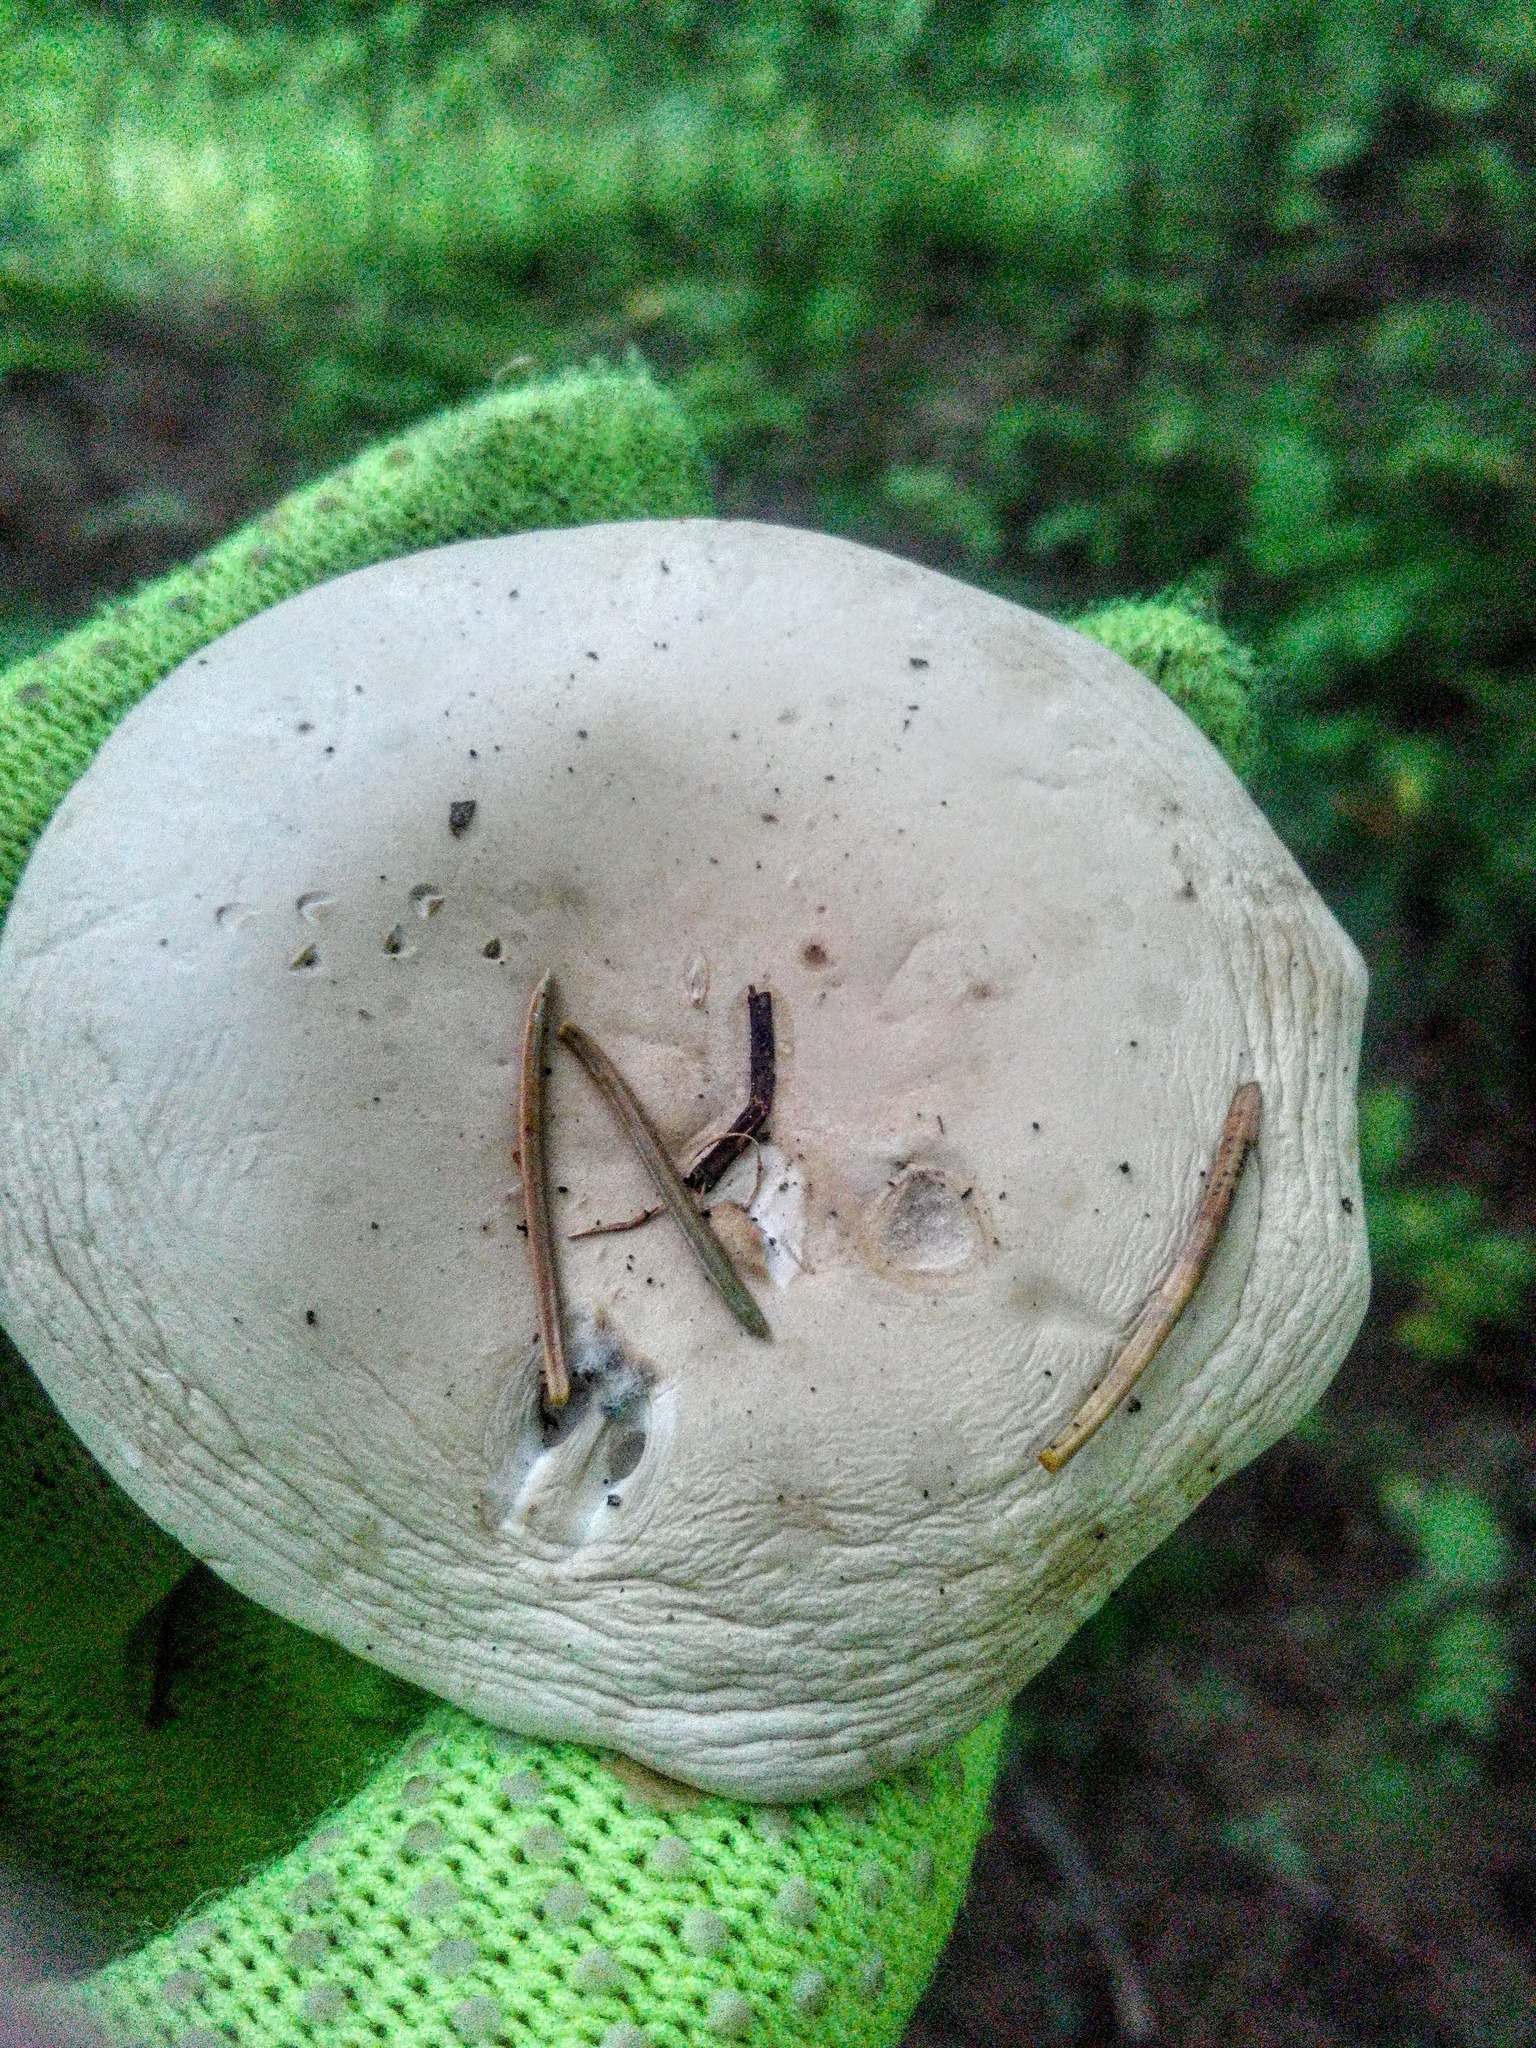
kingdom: Fungi
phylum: Basidiomycota
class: Agaricomycetes
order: Agaricales
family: Entolomataceae
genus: Clitopilus
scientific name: Clitopilus prunulus
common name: The miller
